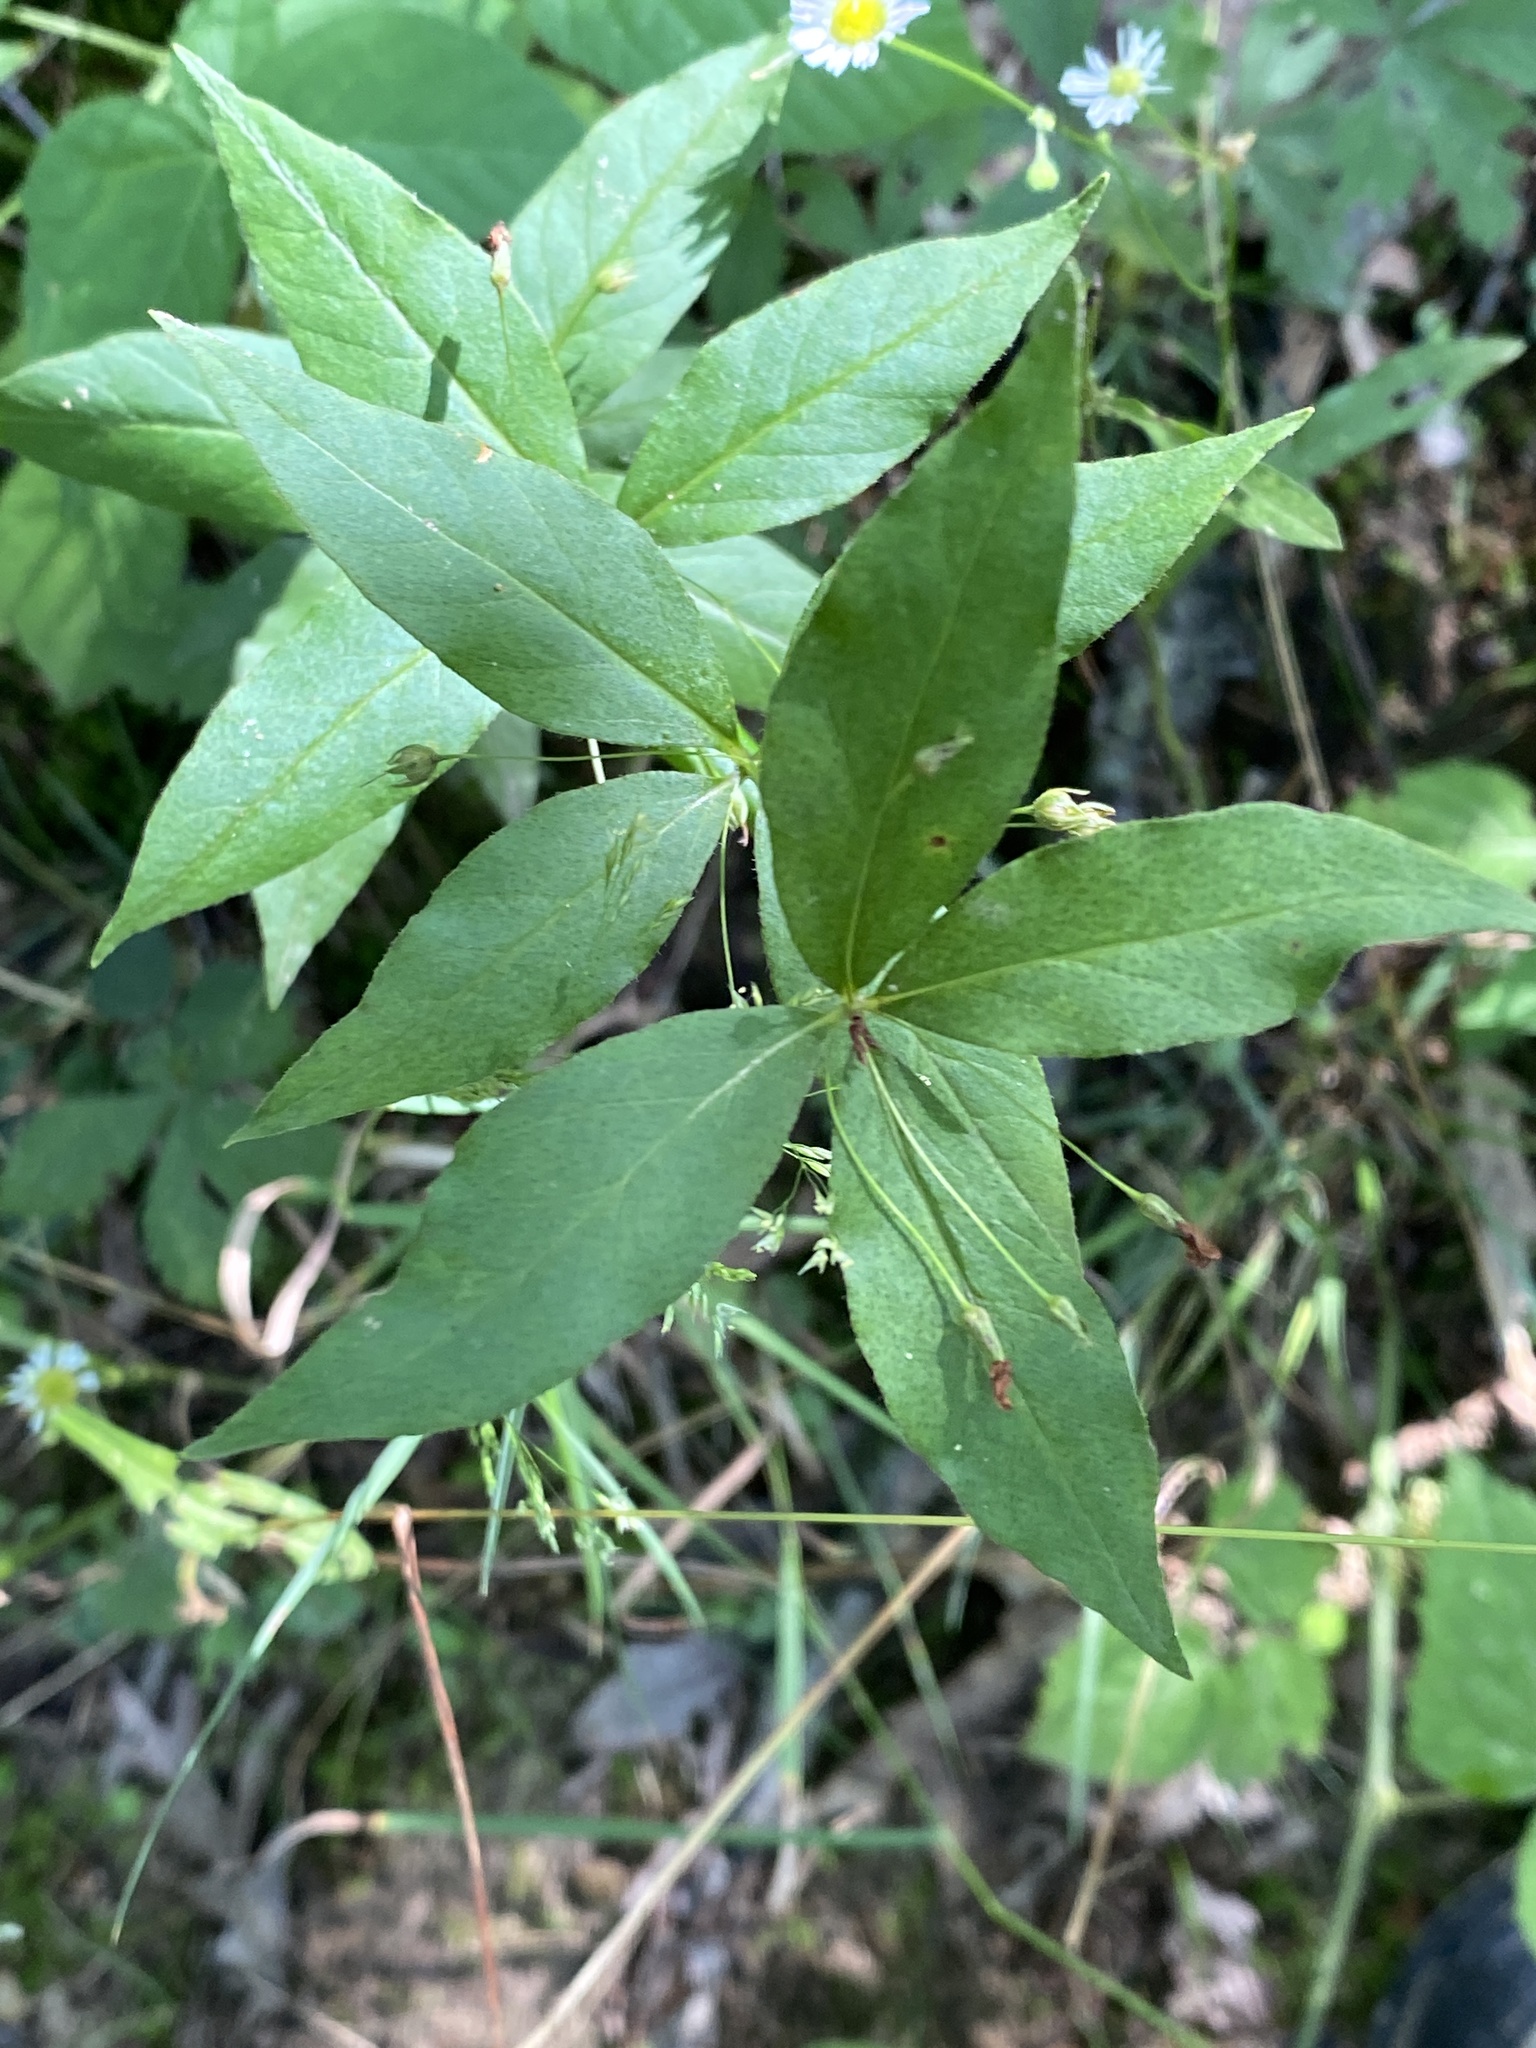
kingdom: Plantae
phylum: Tracheophyta
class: Magnoliopsida
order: Ericales
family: Primulaceae
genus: Lysimachia
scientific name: Lysimachia quadrifolia
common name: Whorled loosestrife
